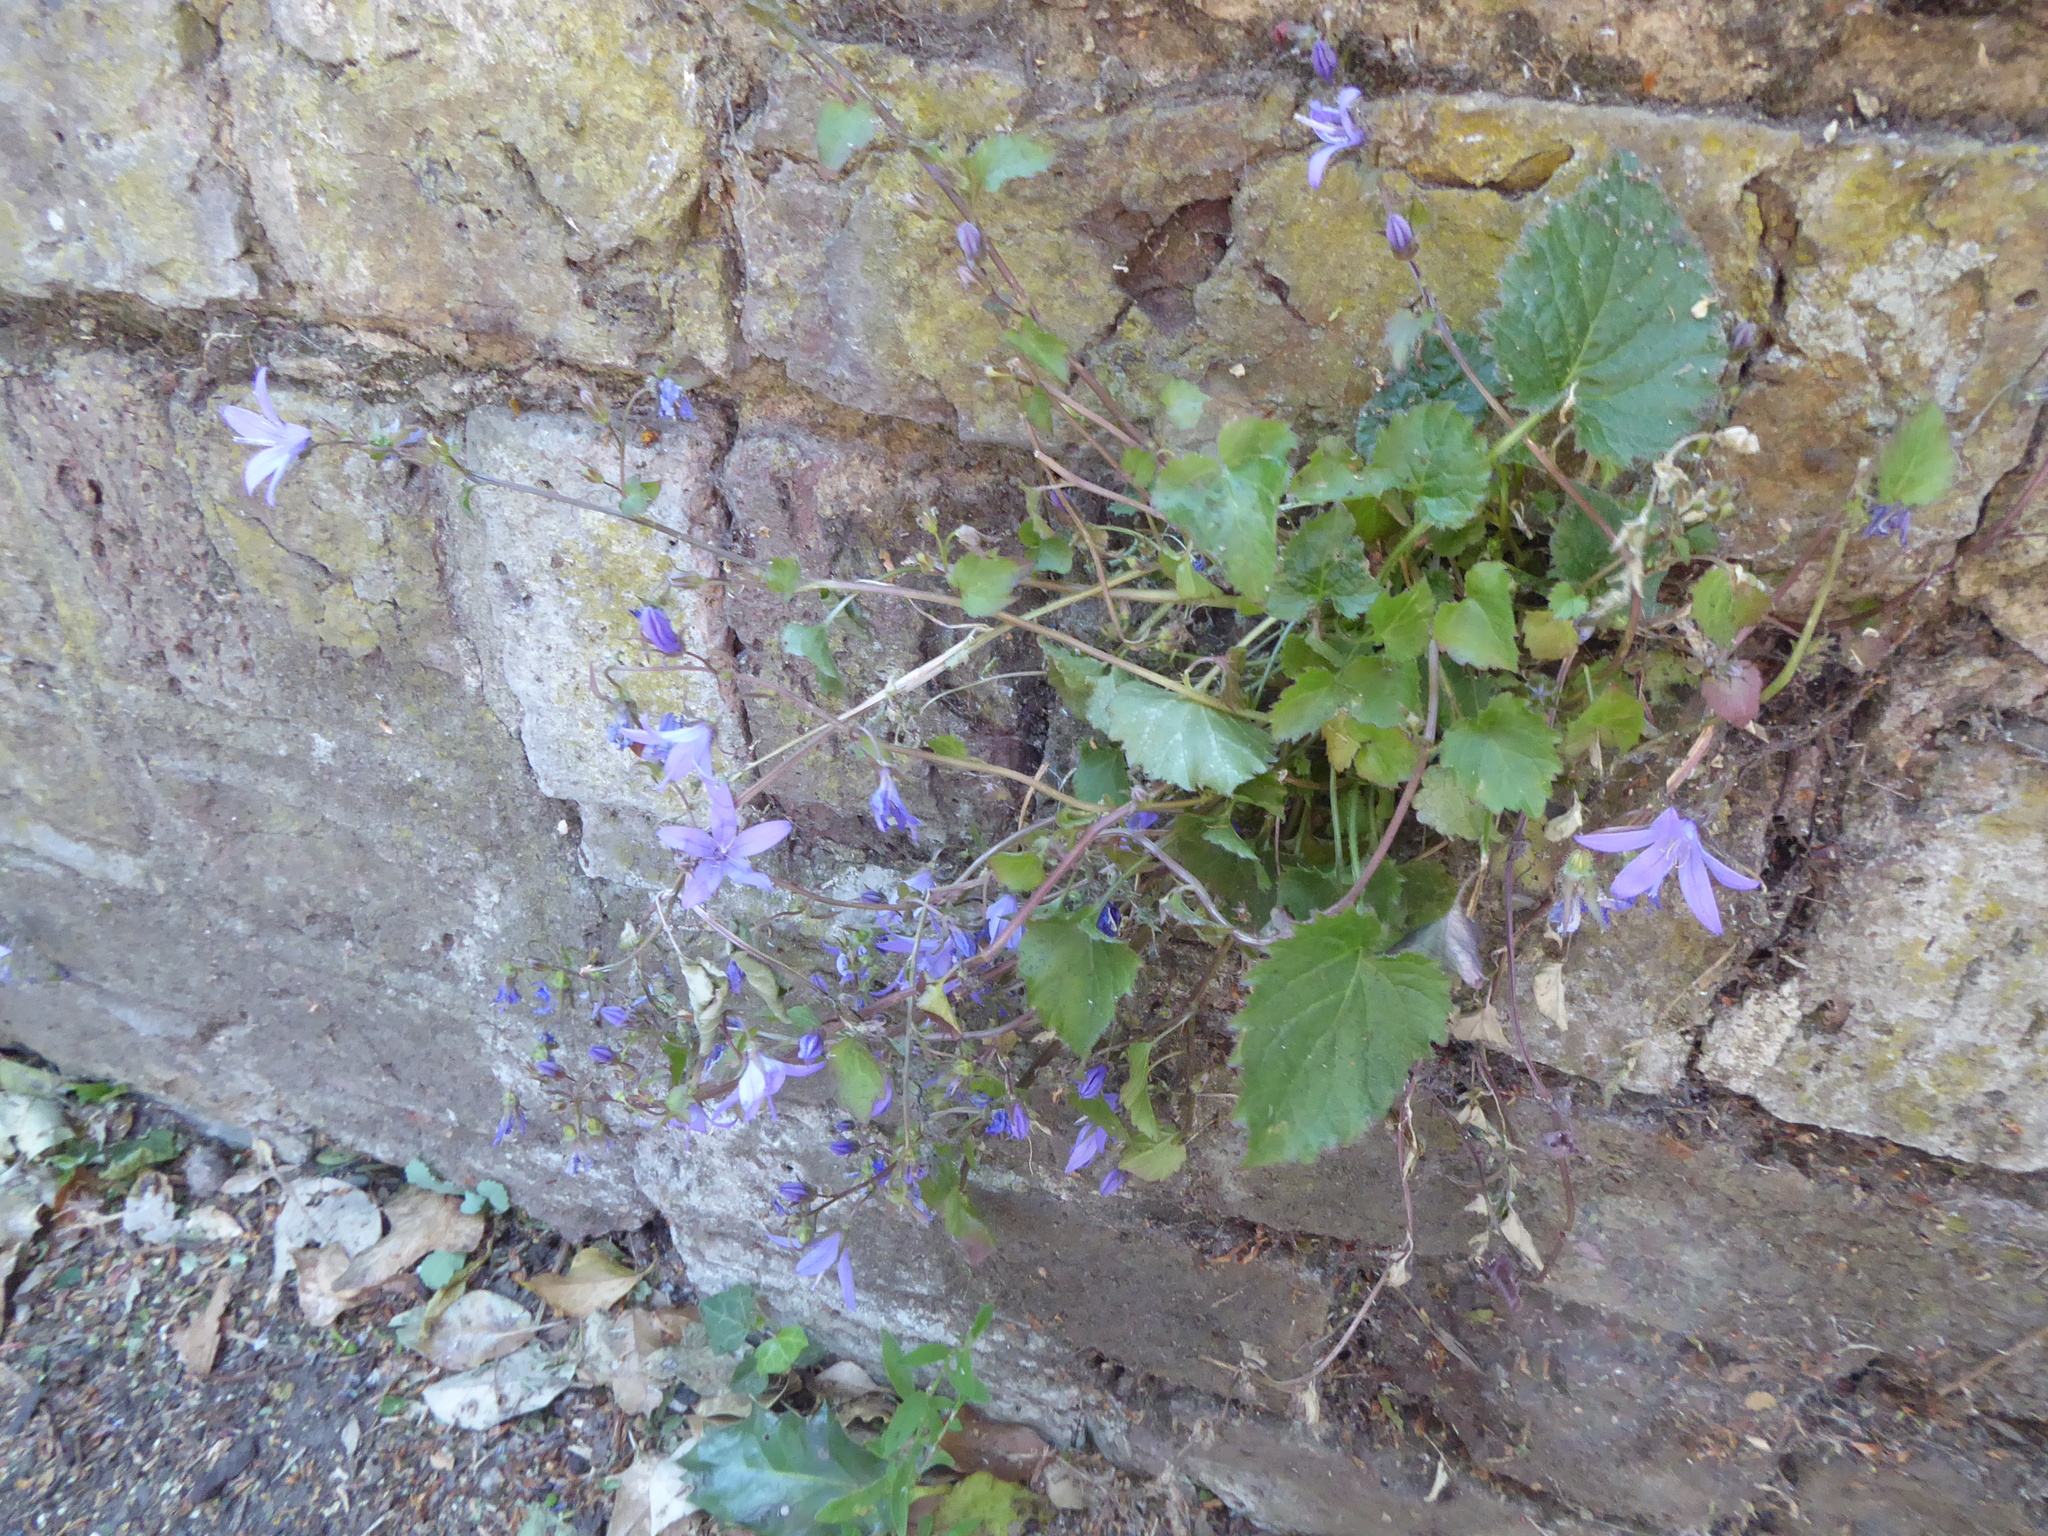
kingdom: Plantae
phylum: Tracheophyta
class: Magnoliopsida
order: Asterales
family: Campanulaceae
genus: Campanula
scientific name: Campanula poscharskyana
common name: Trailing bellflower
